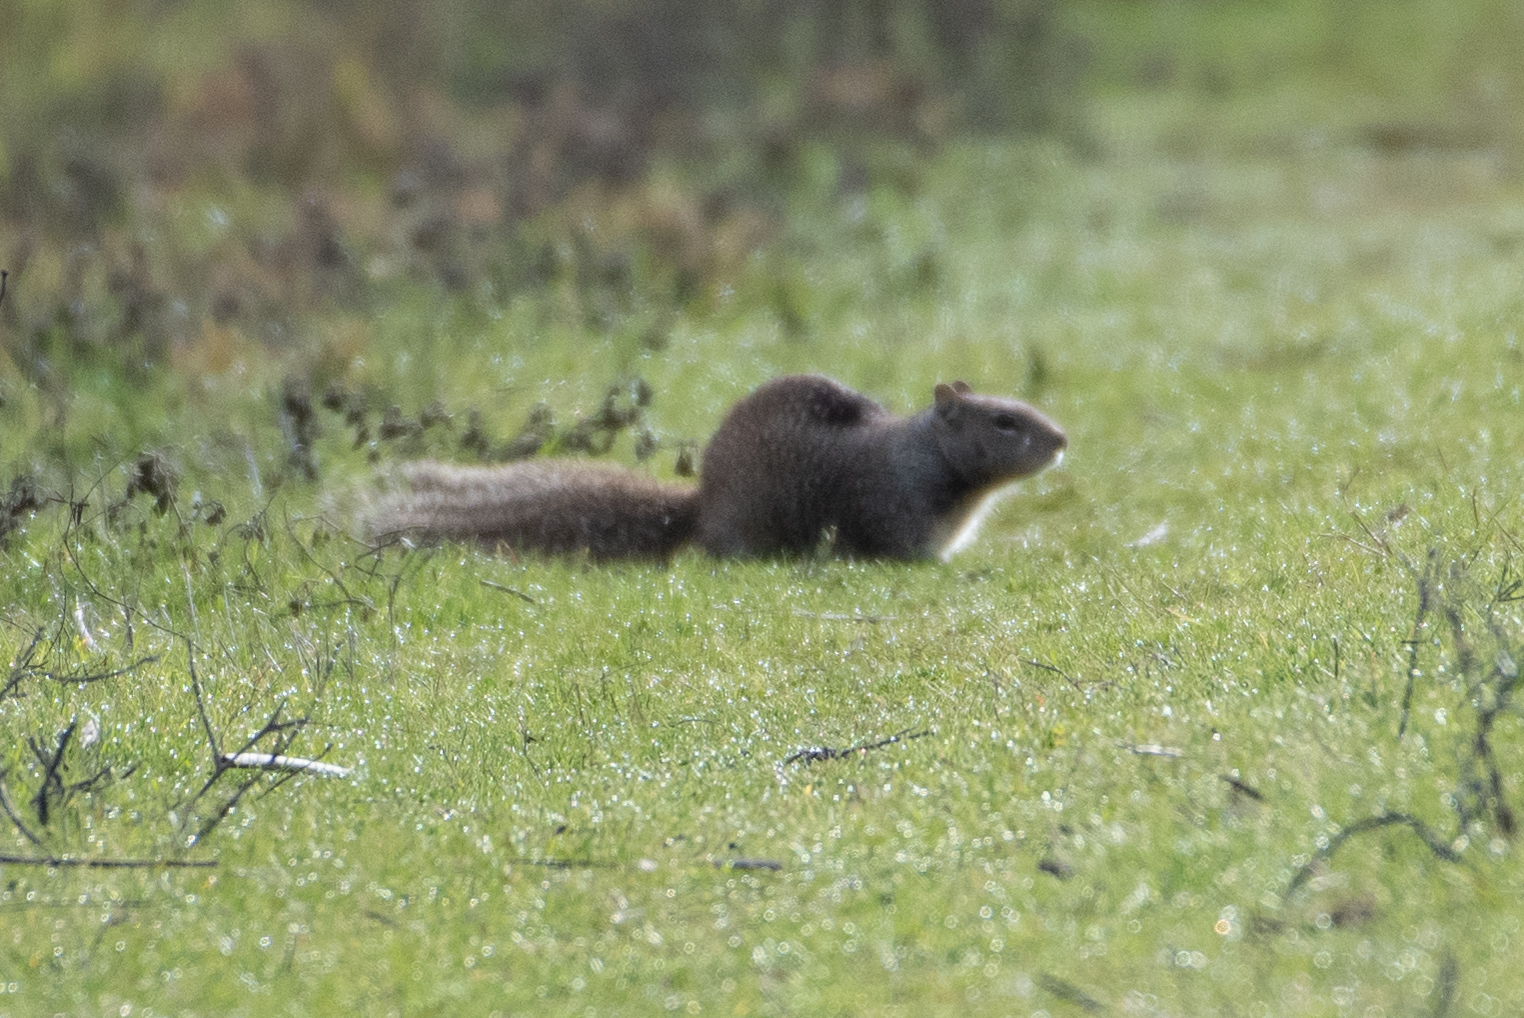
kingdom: Animalia
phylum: Chordata
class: Mammalia
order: Rodentia
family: Sciuridae
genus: Otospermophilus
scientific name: Otospermophilus beecheyi
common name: California ground squirrel
